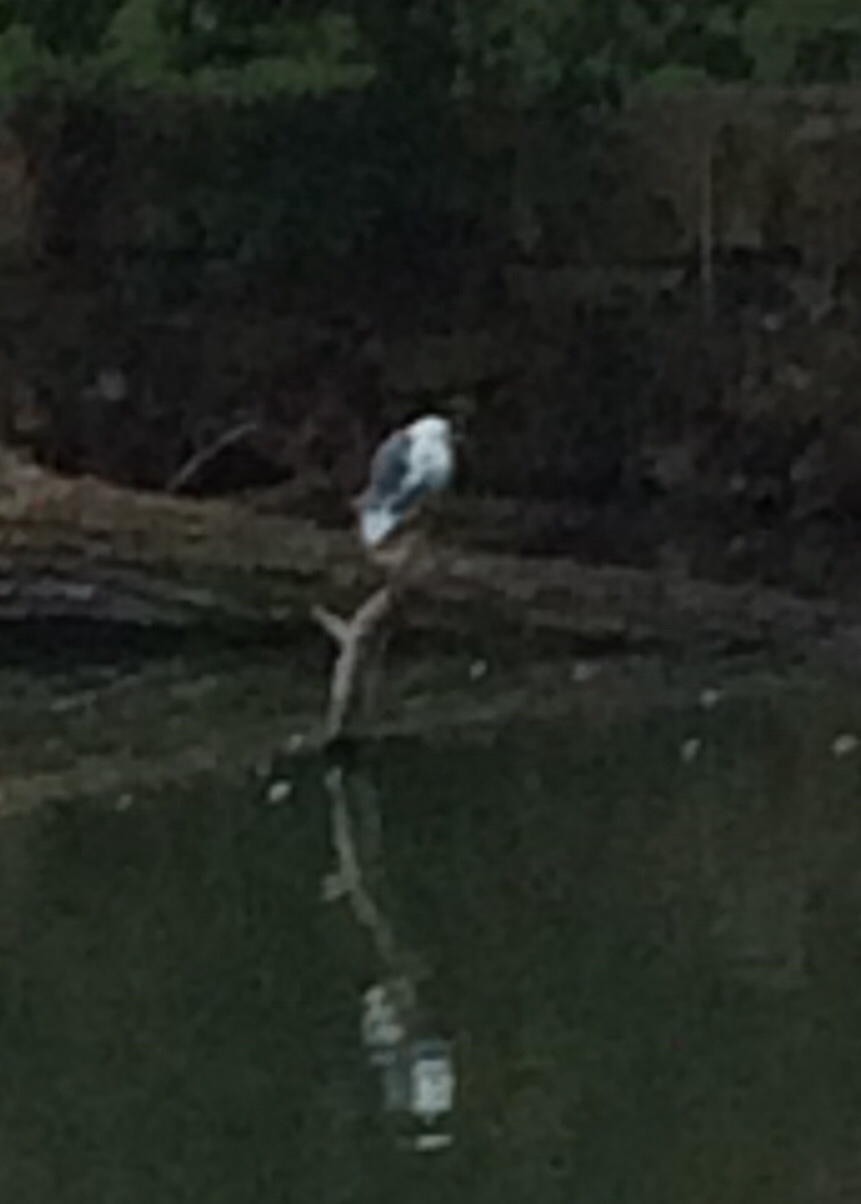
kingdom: Animalia
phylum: Chordata
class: Aves
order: Pelecaniformes
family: Ardeidae
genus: Egretta
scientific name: Egretta caerulea
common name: Little blue heron
